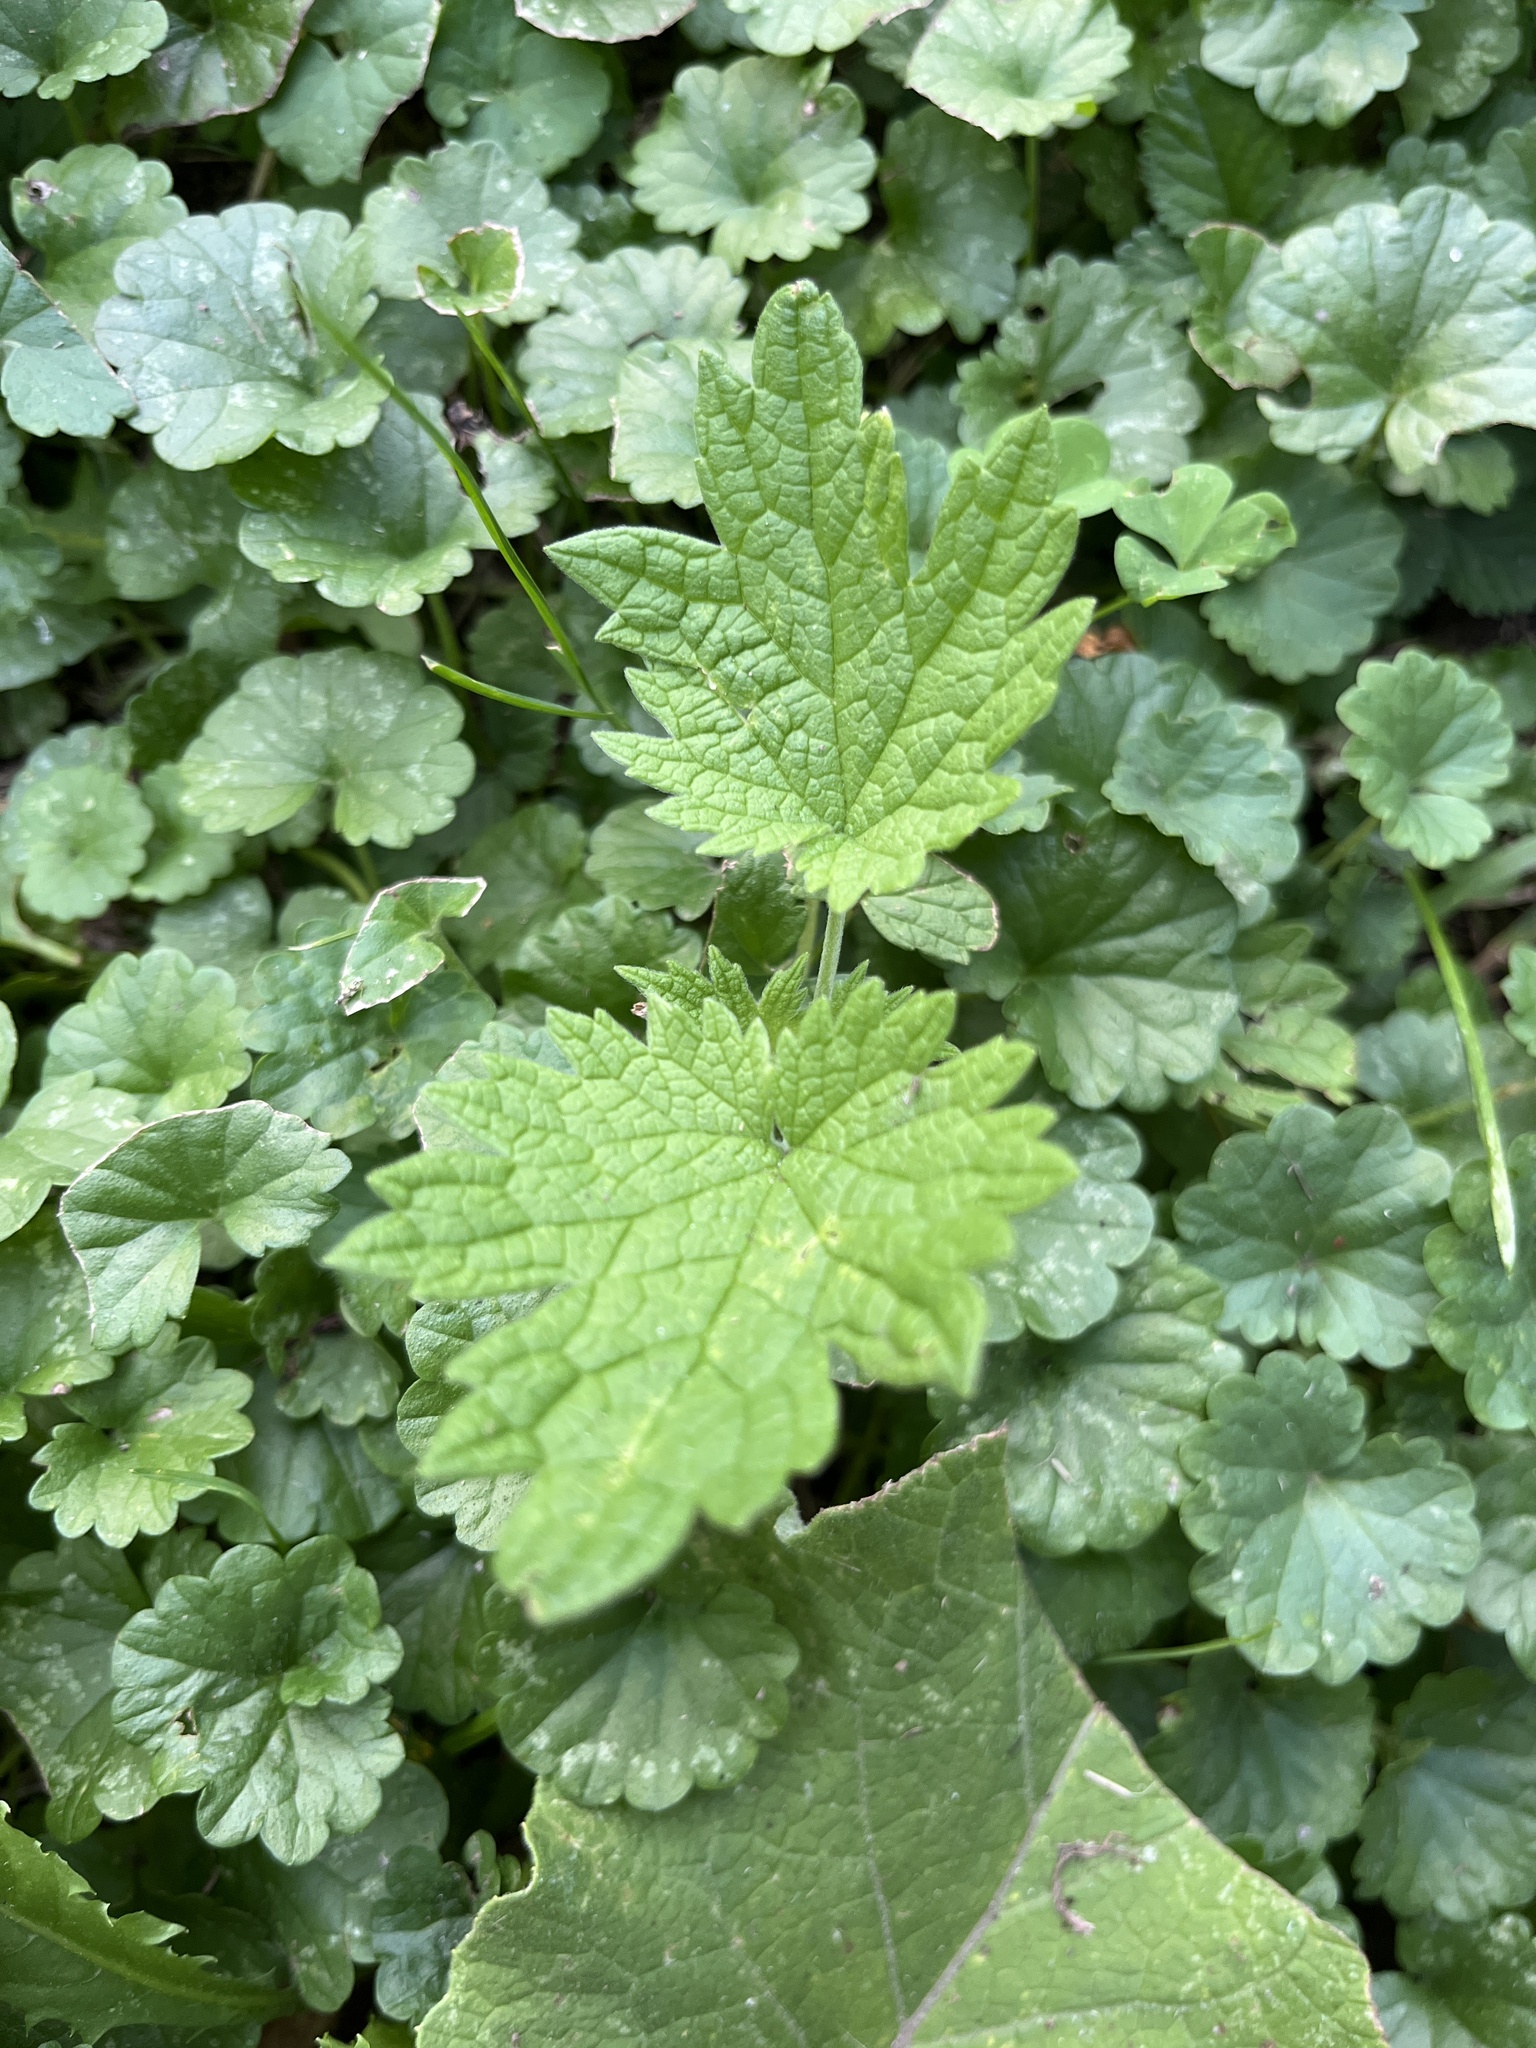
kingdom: Plantae
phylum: Tracheophyta
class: Magnoliopsida
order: Lamiales
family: Lamiaceae
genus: Leonurus
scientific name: Leonurus cardiaca
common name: Motherwort
